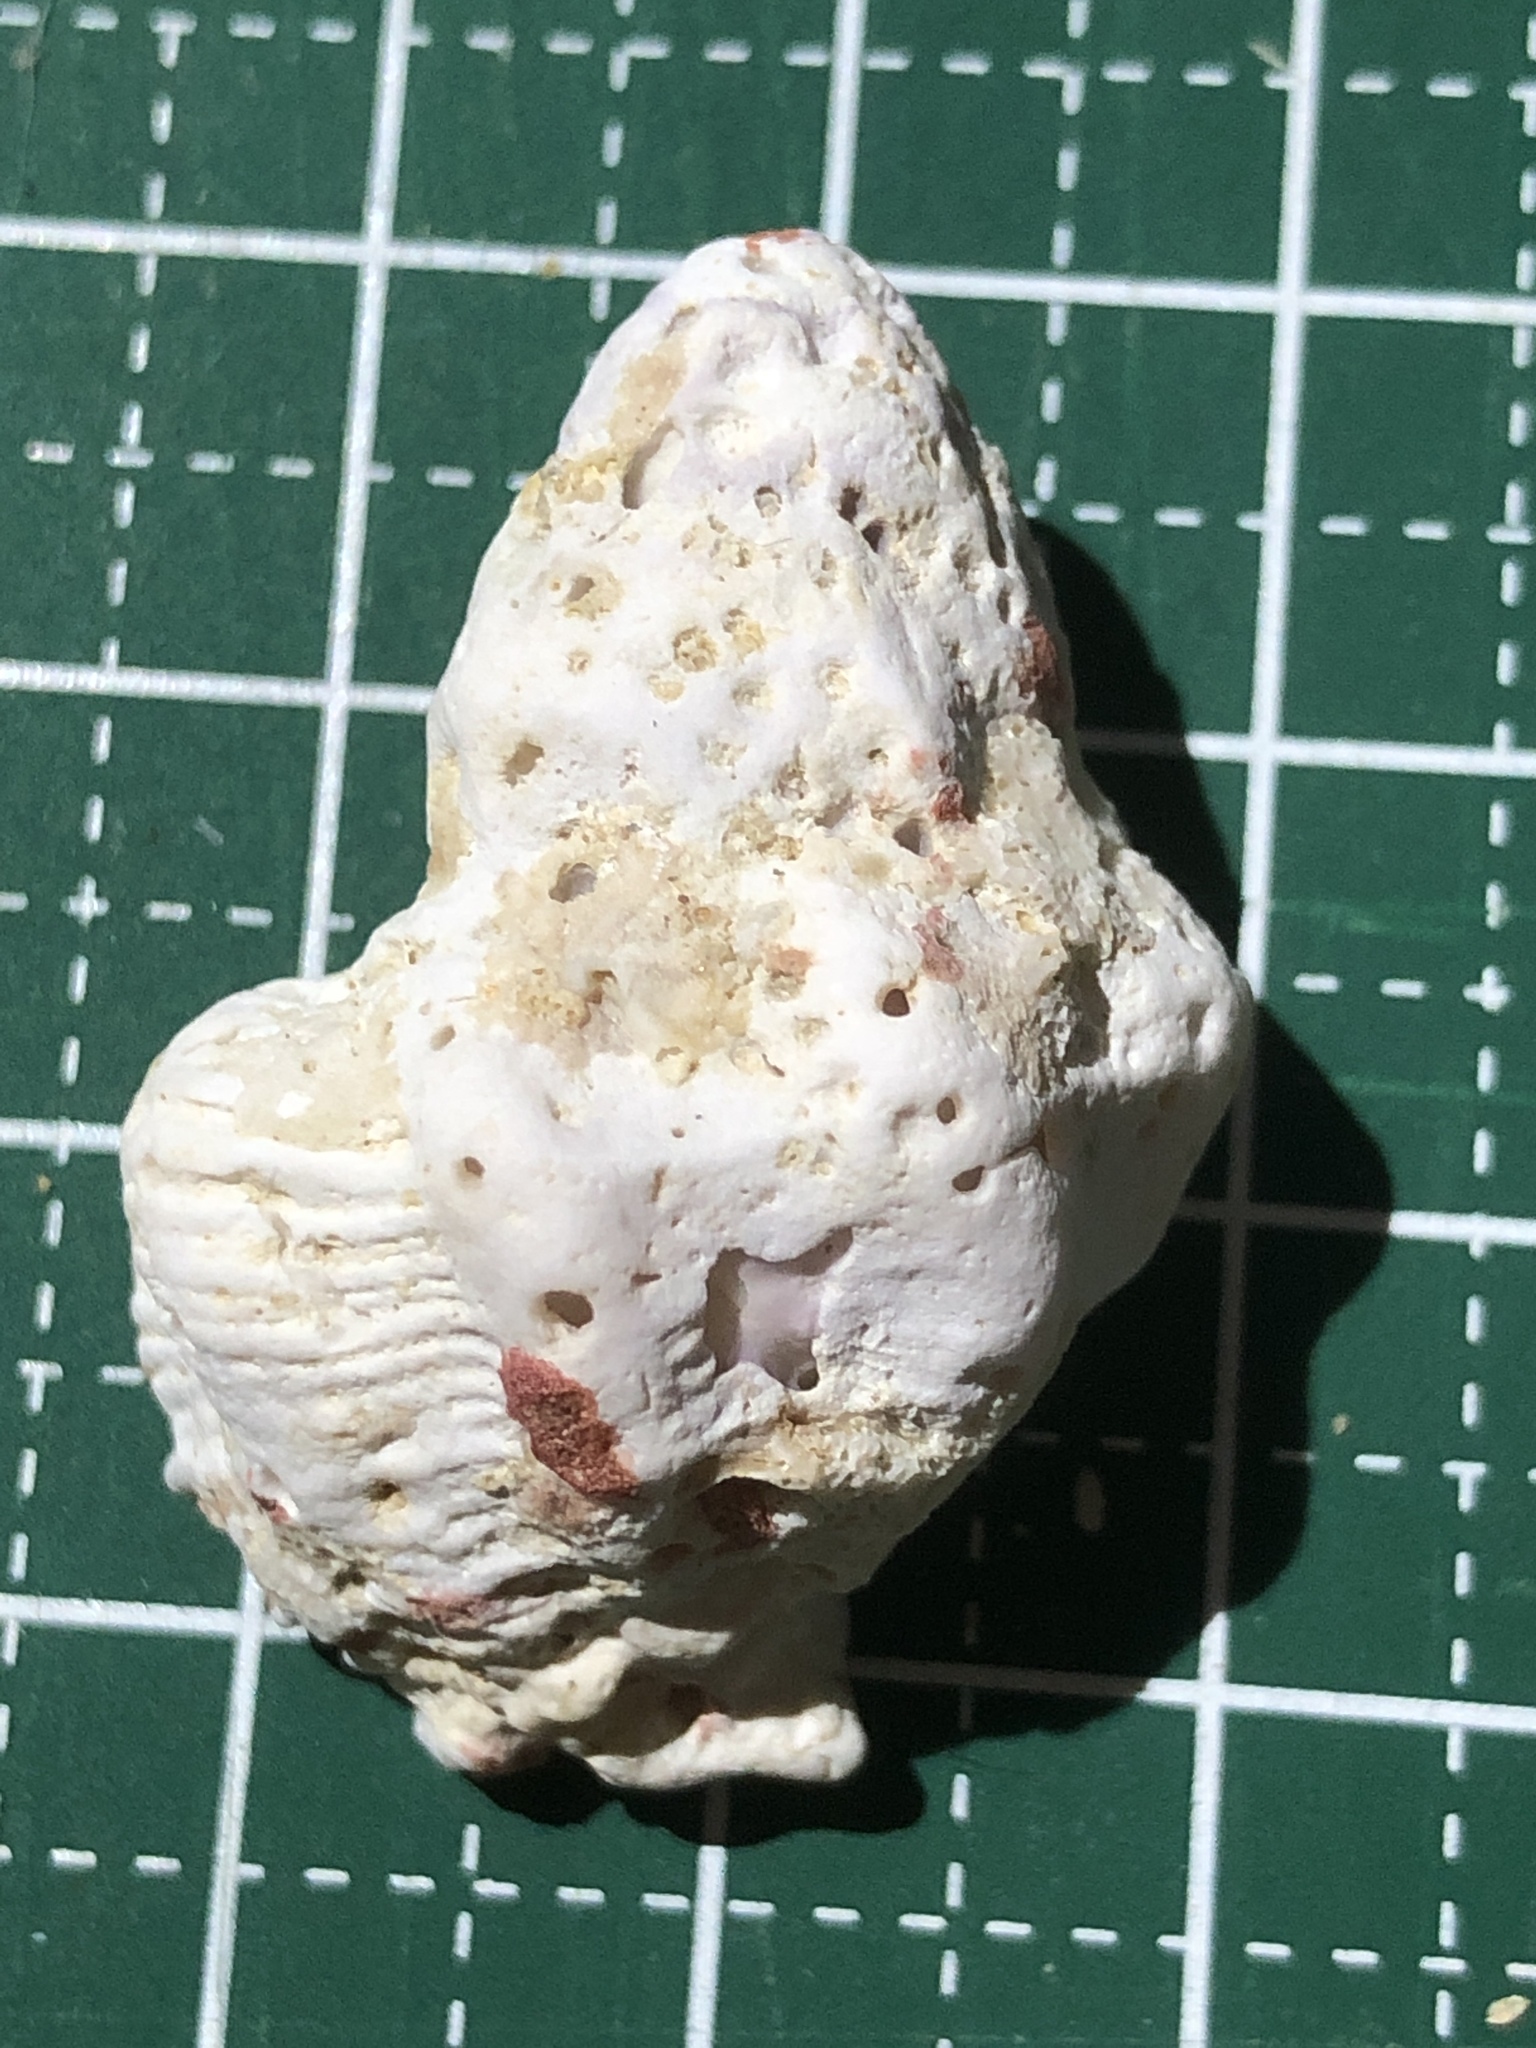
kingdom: Animalia
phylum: Mollusca
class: Gastropoda
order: Neogastropoda
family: Muricidae
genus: Coralliophila
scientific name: Coralliophila erosa
